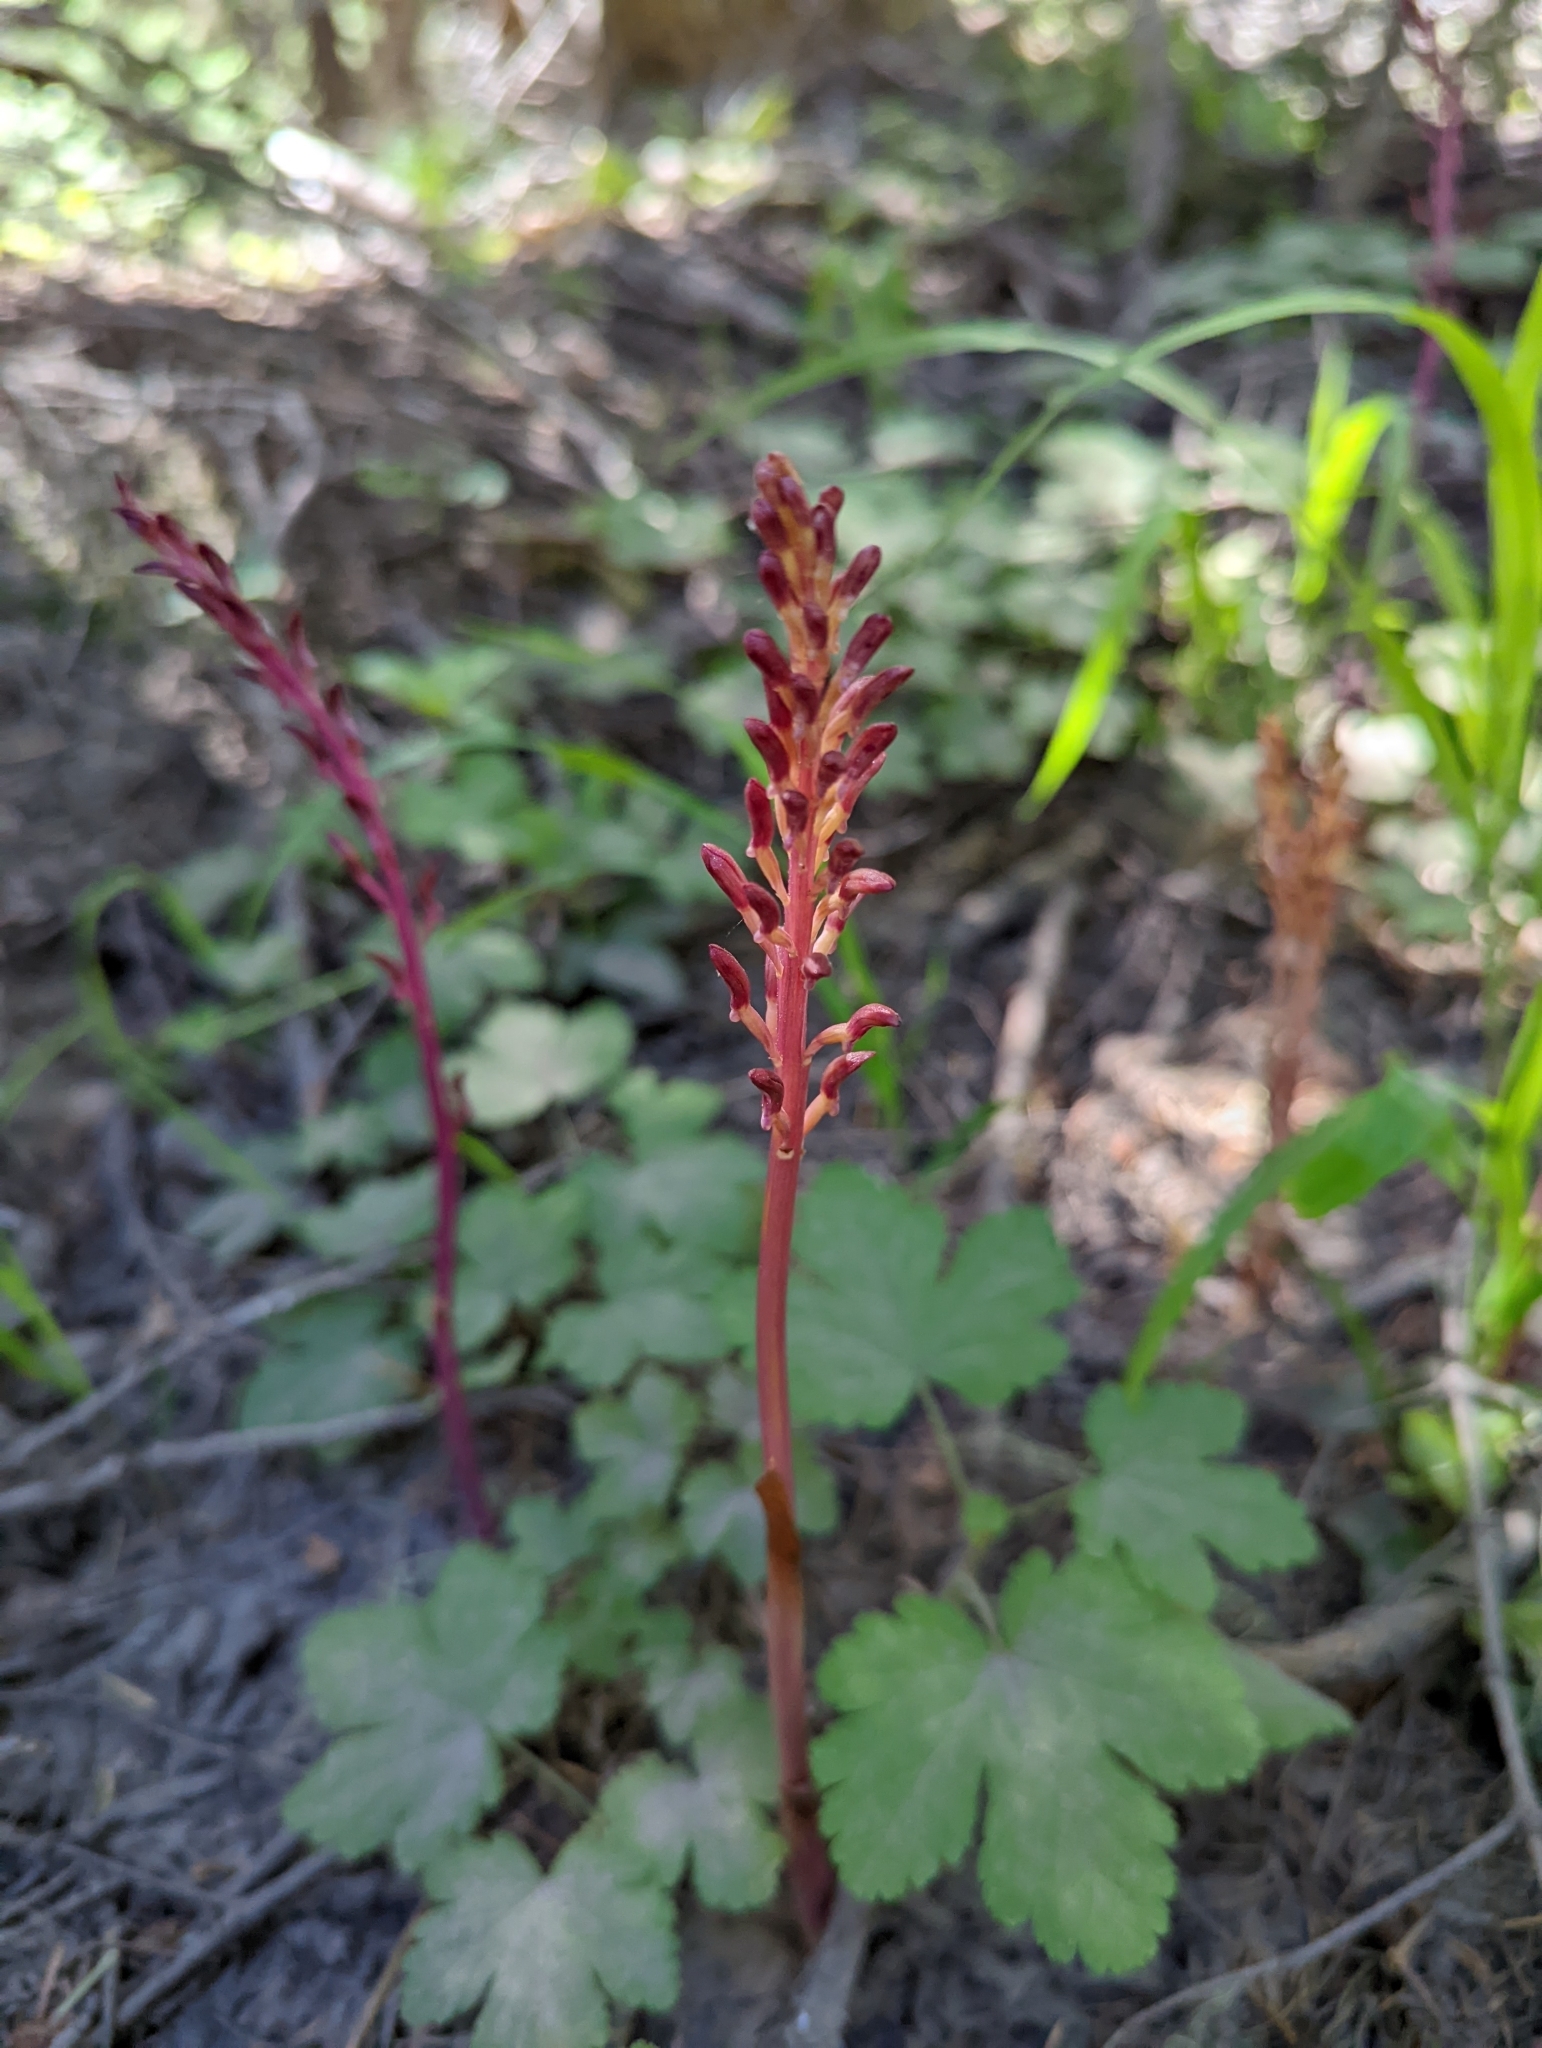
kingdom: Plantae
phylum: Tracheophyta
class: Liliopsida
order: Asparagales
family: Orchidaceae
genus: Corallorhiza
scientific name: Corallorhiza mertensiana
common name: Pacific coralroot
